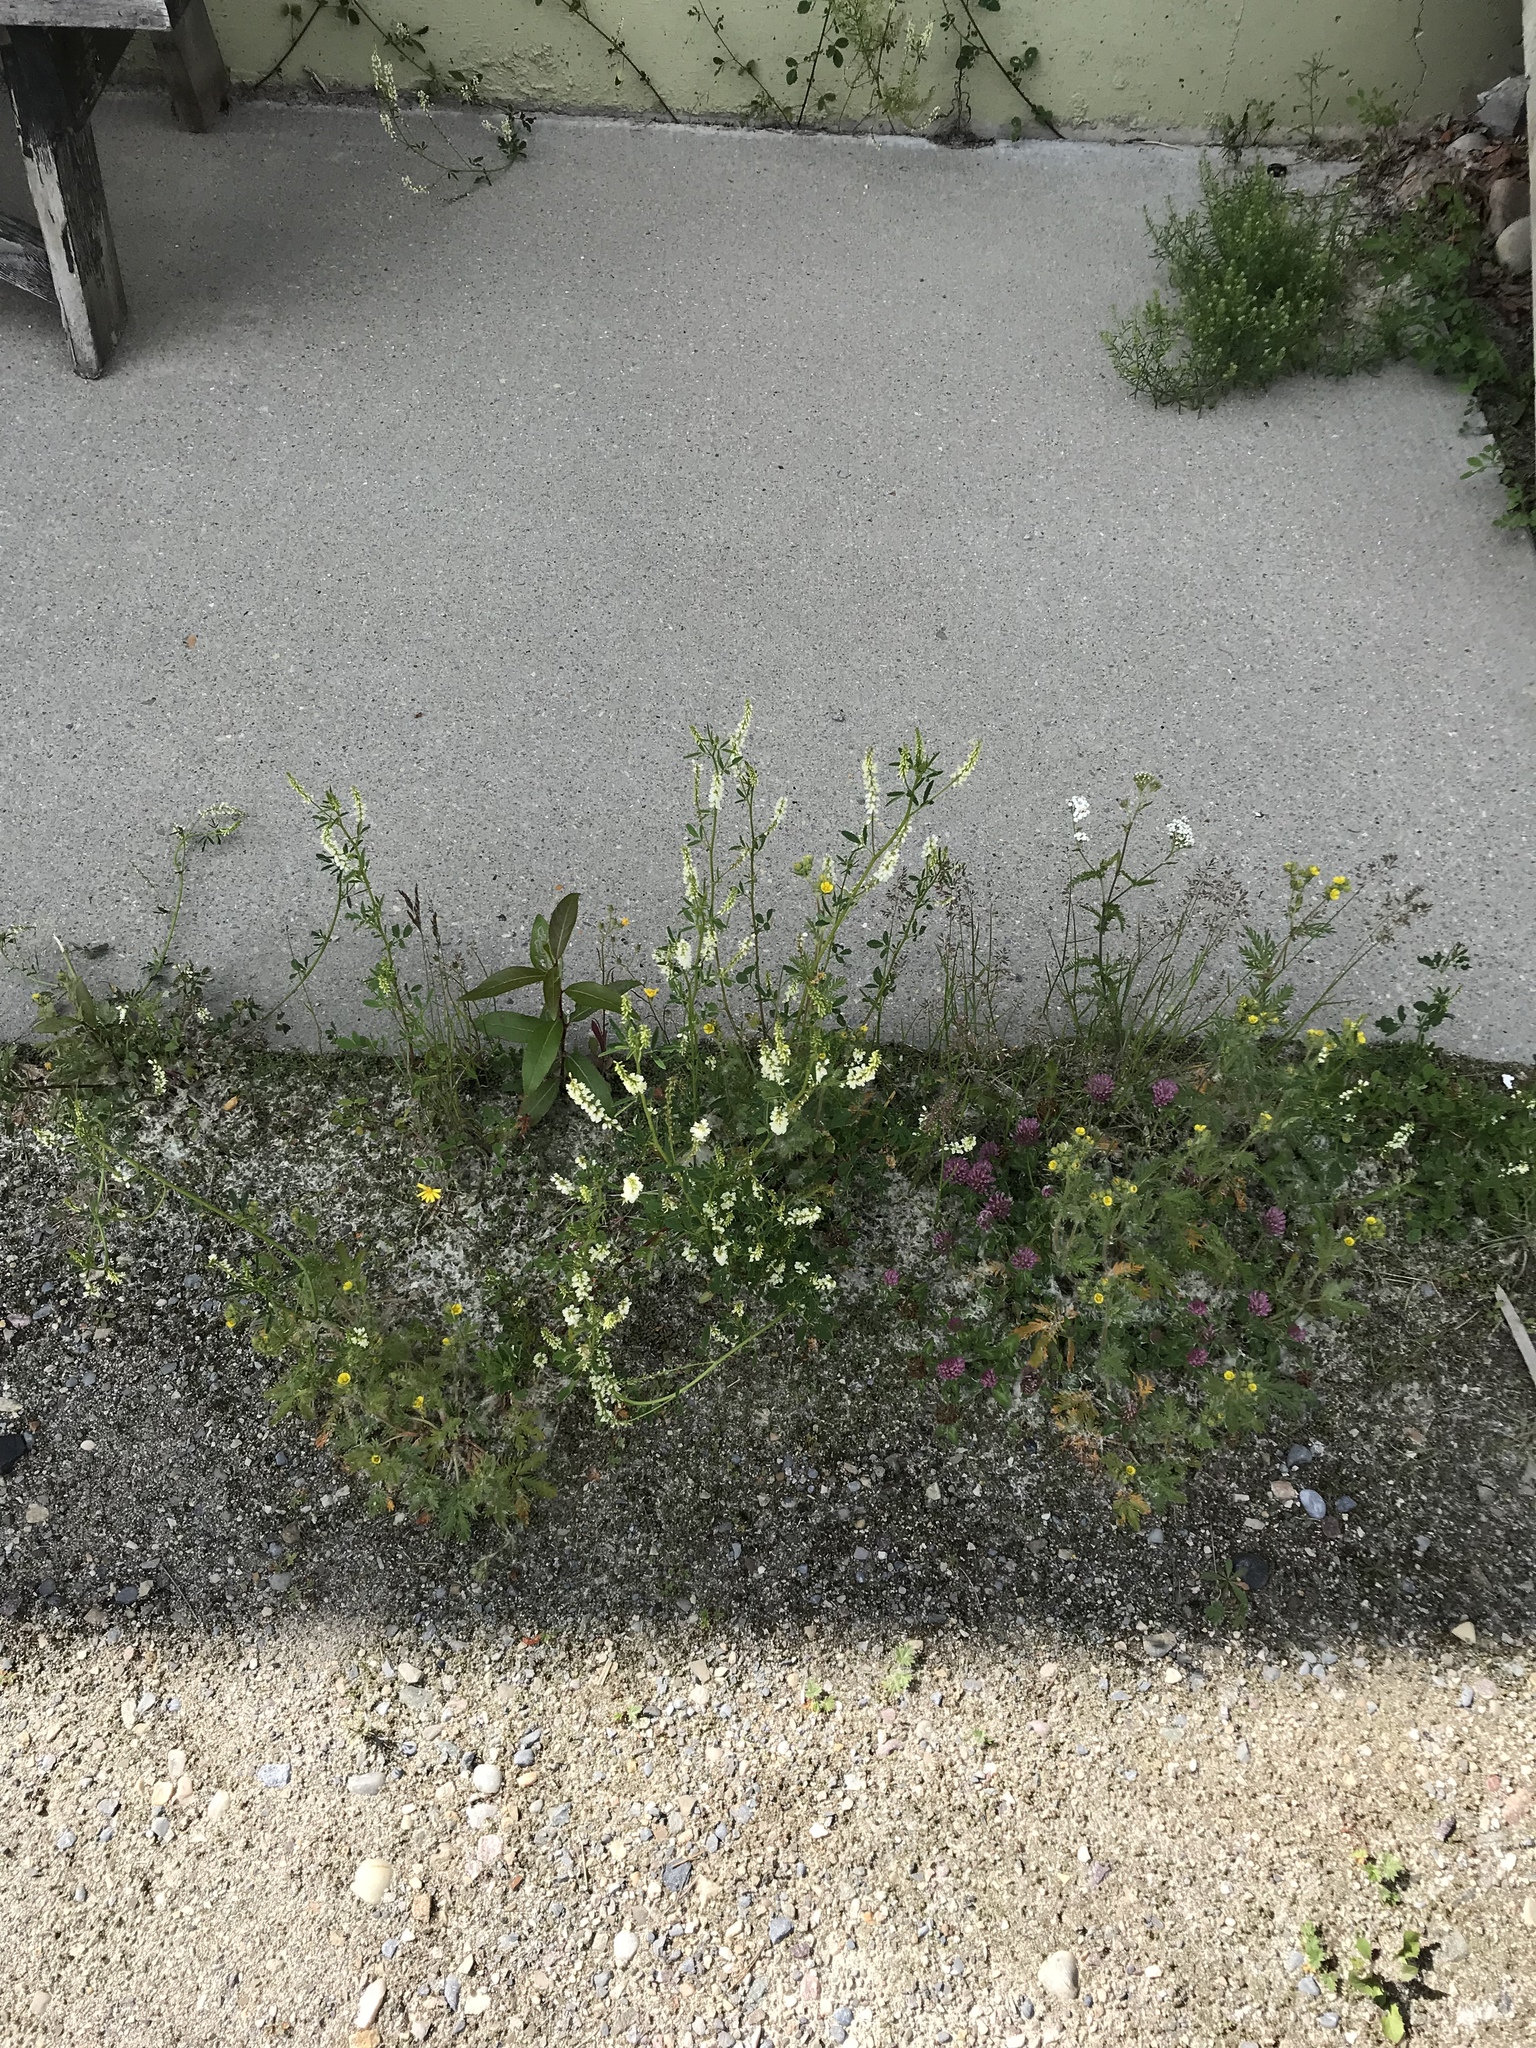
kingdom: Plantae
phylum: Tracheophyta
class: Magnoliopsida
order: Fabales
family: Fabaceae
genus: Melilotus
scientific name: Melilotus albus
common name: White melilot
